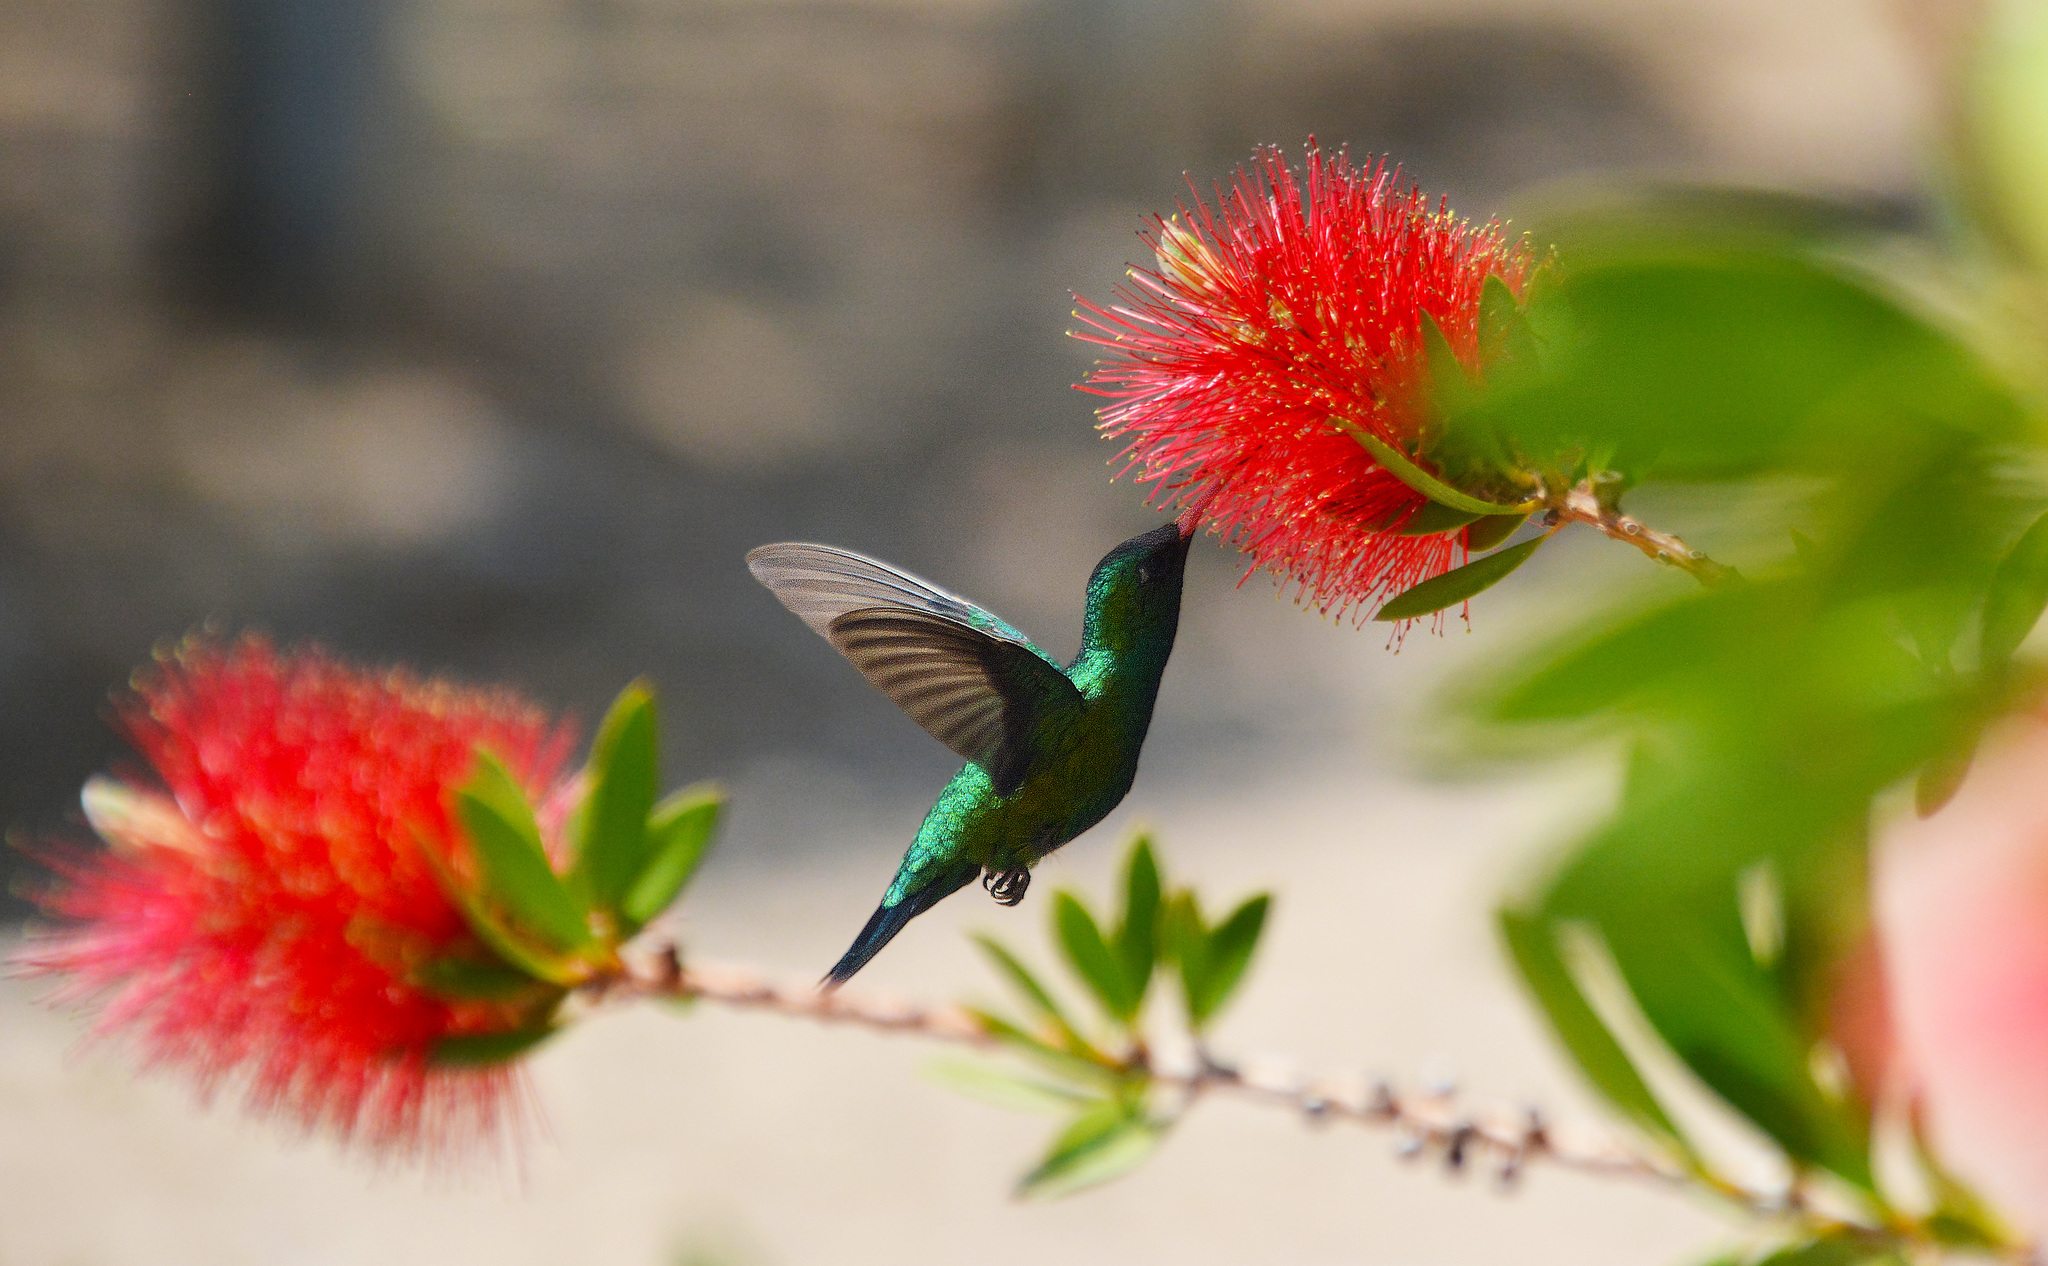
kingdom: Animalia
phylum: Chordata
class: Aves
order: Apodiformes
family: Trochilidae
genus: Chlorostilbon
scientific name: Chlorostilbon lucidus
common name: Glittering-bellied emerald
